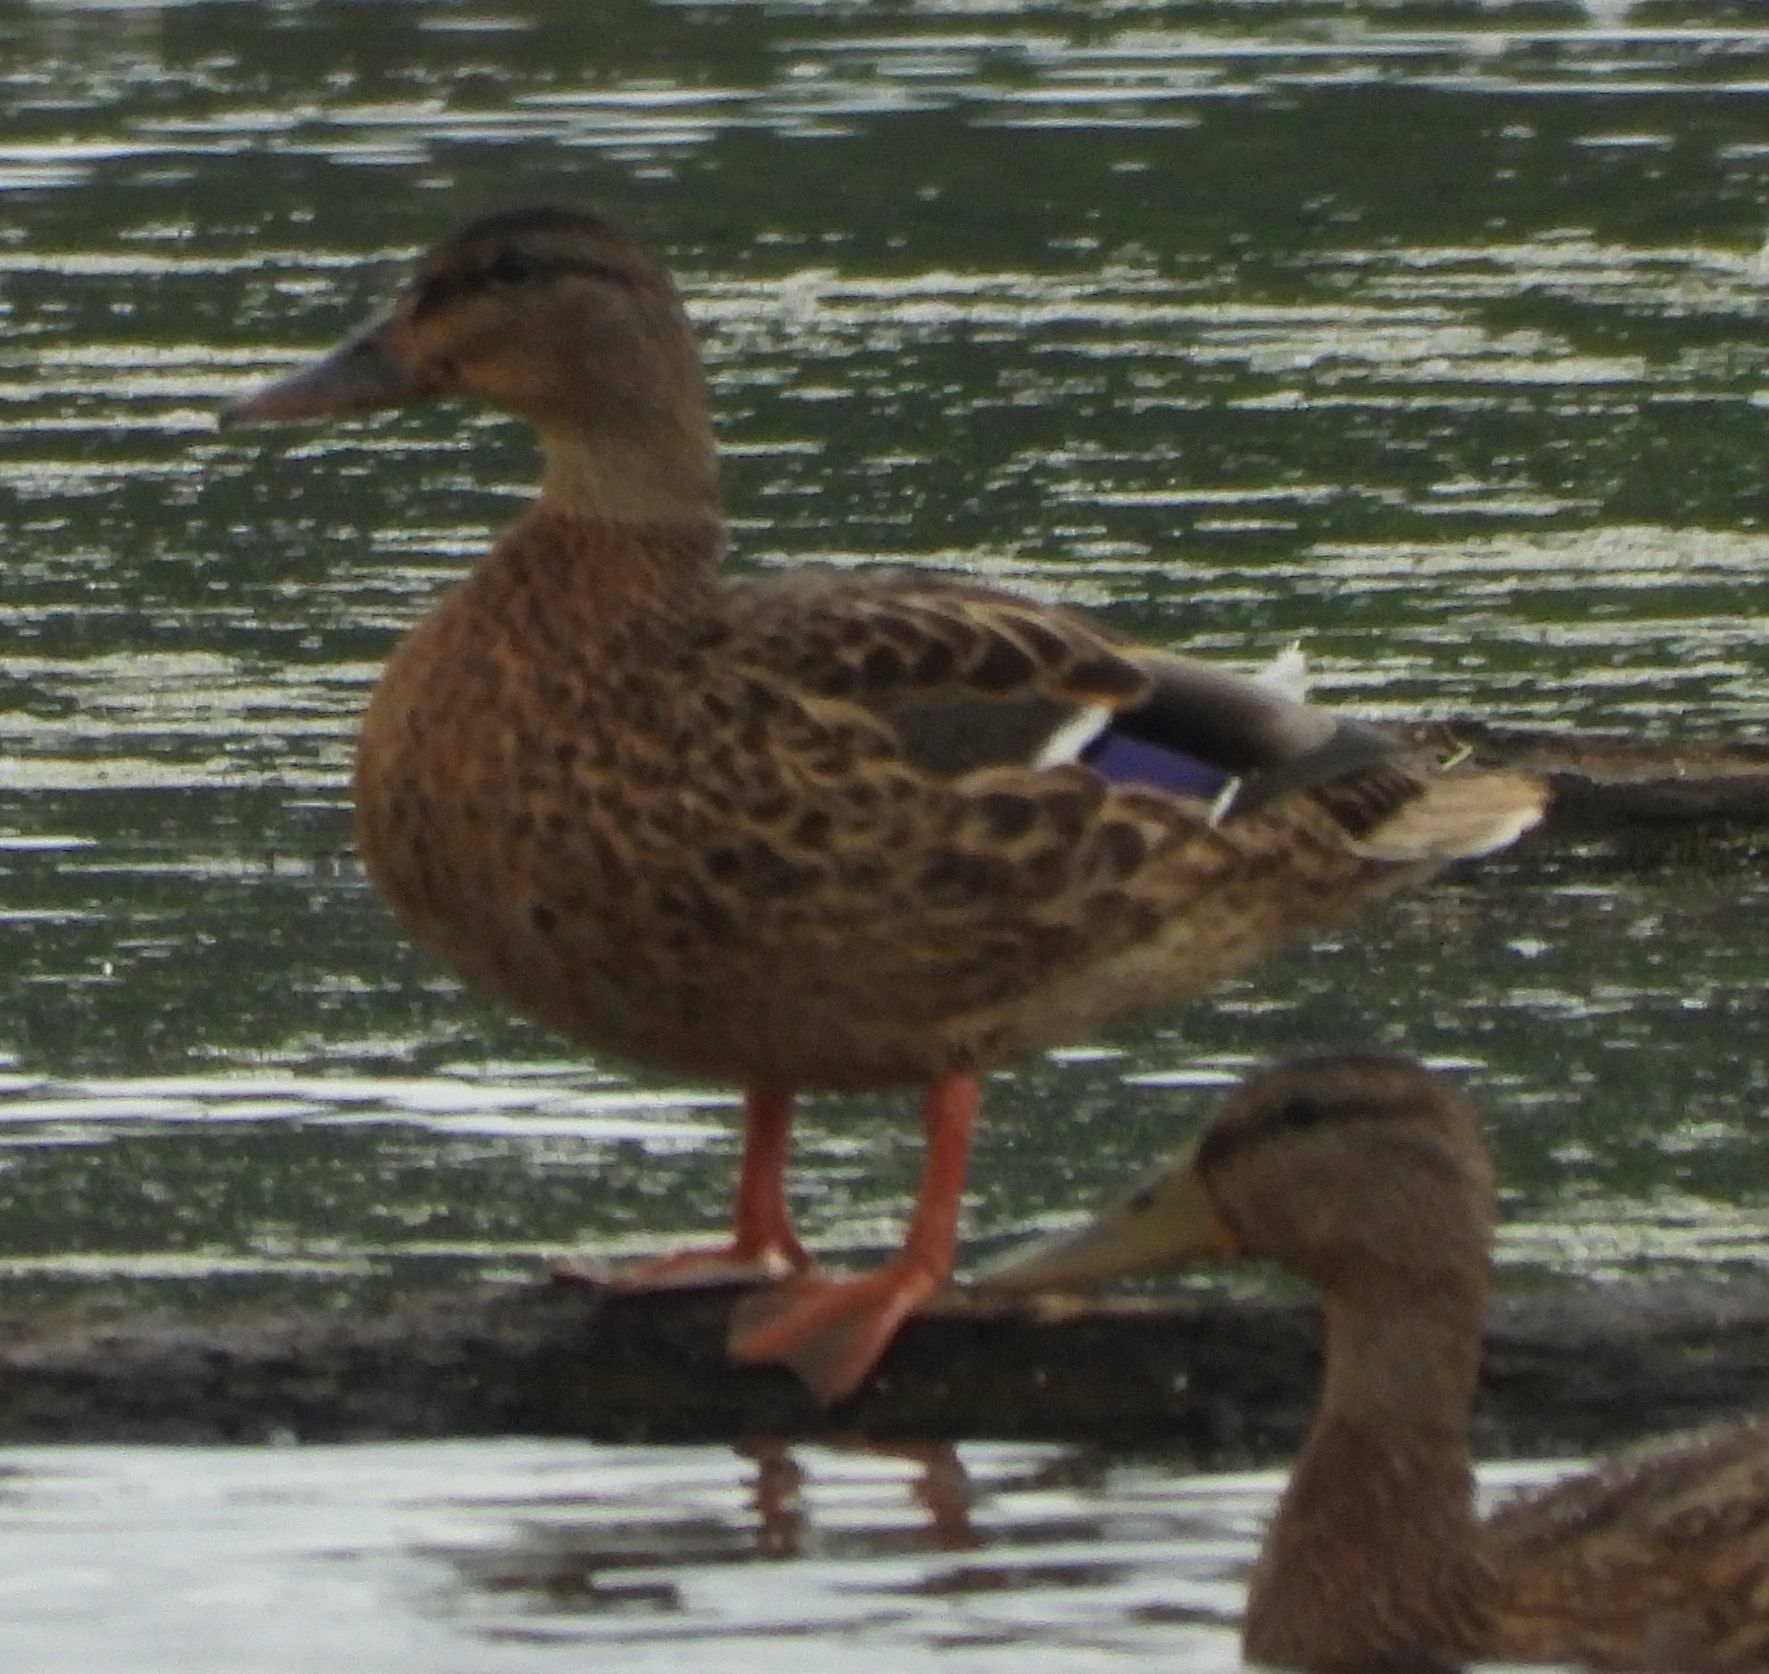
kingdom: Animalia
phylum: Chordata
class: Aves
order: Anseriformes
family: Anatidae
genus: Anas
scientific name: Anas platyrhynchos
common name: Mallard
